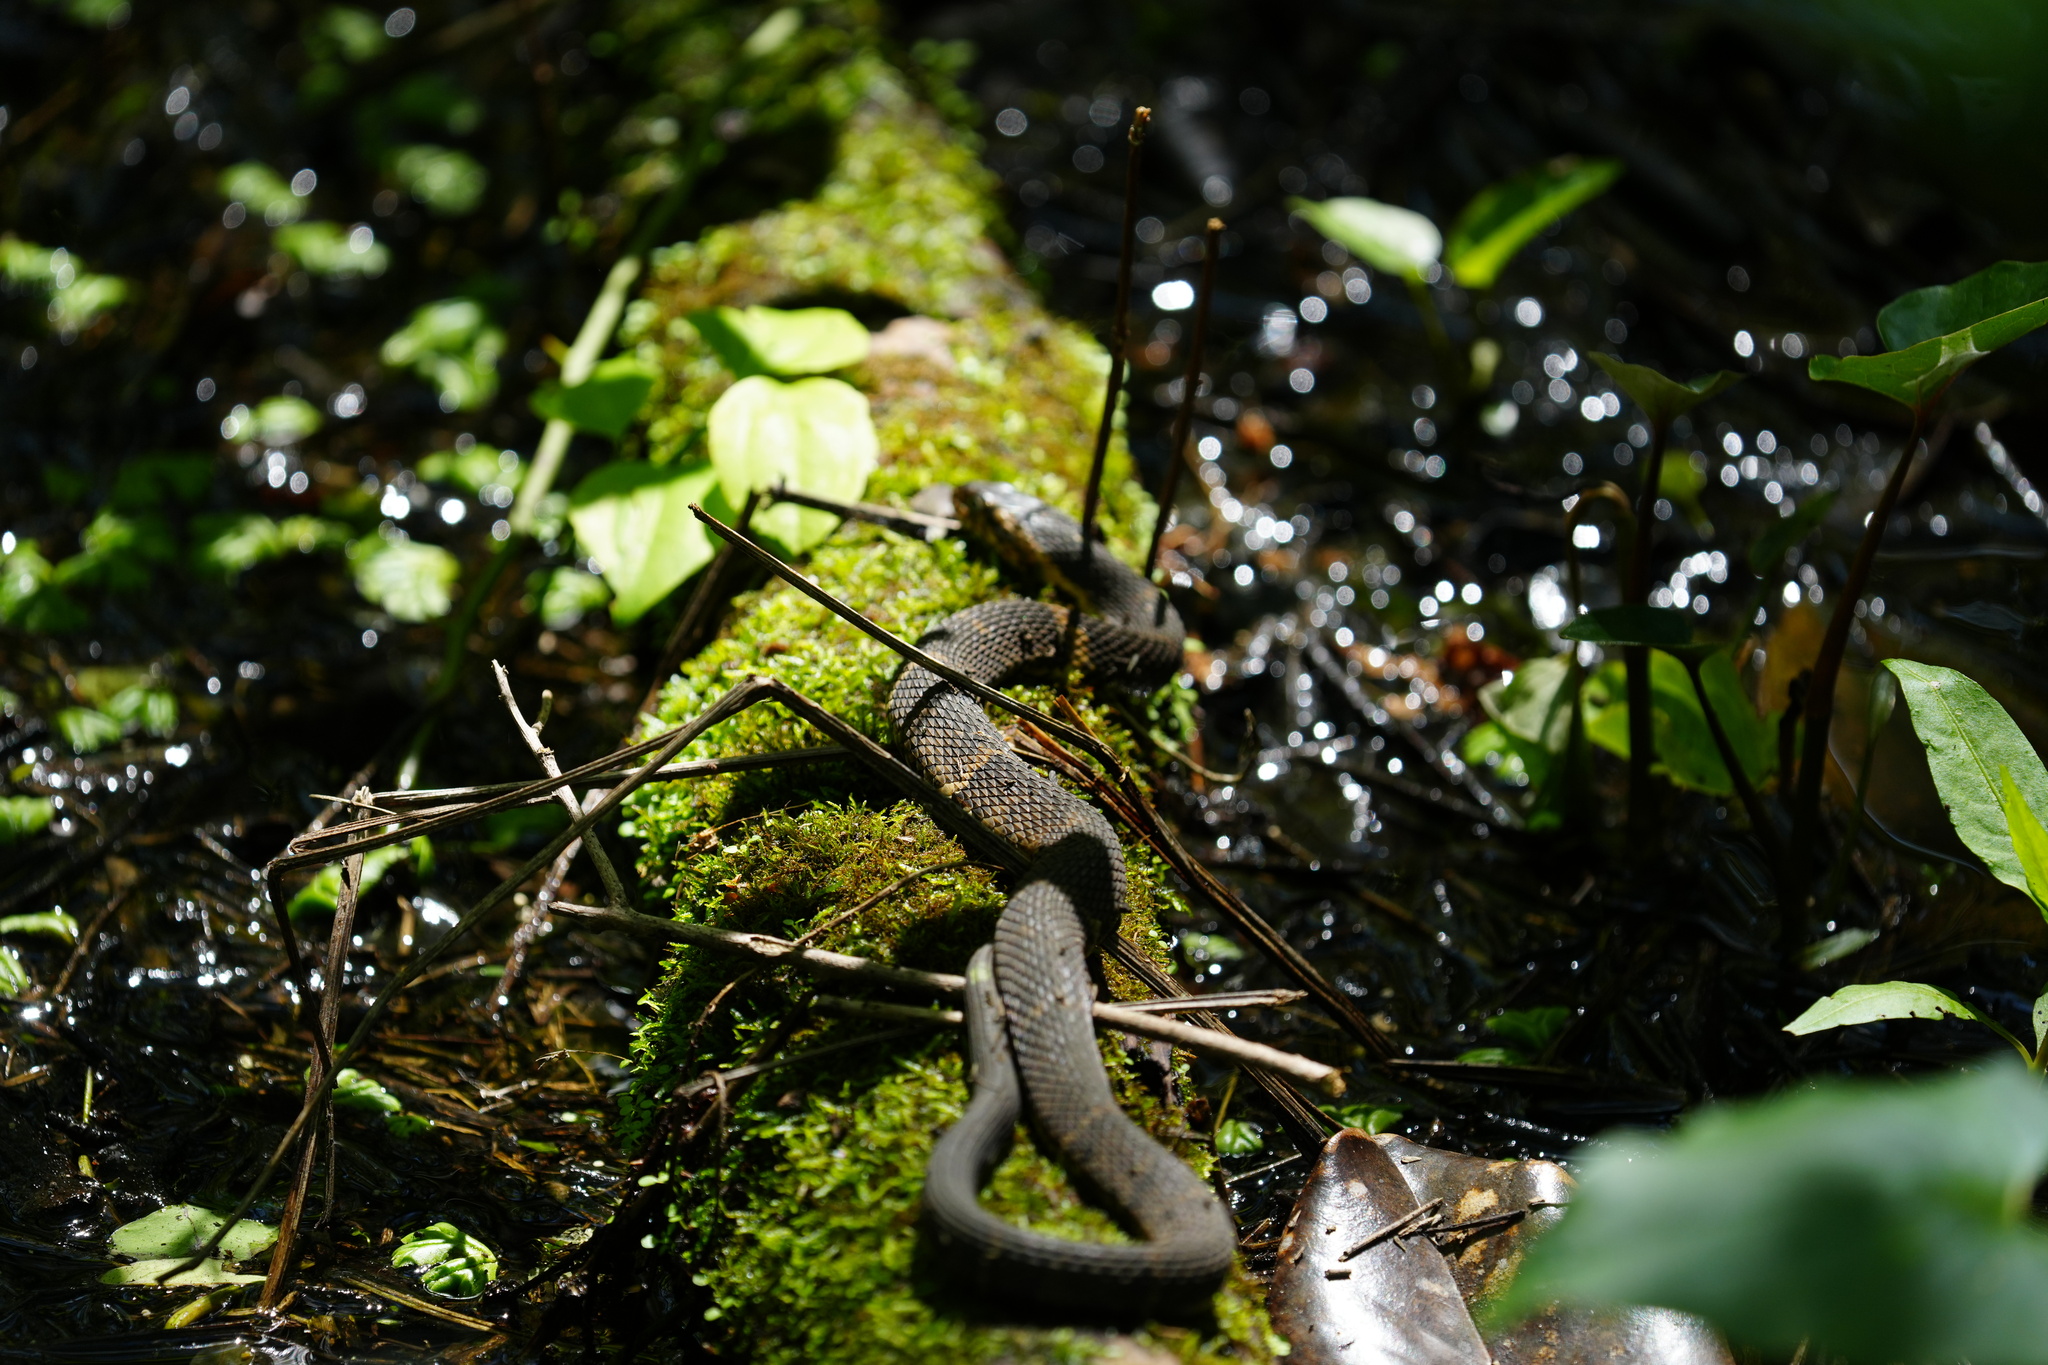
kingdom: Animalia
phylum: Chordata
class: Squamata
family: Colubridae
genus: Nerodia
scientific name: Nerodia fasciata
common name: Southern water snake
